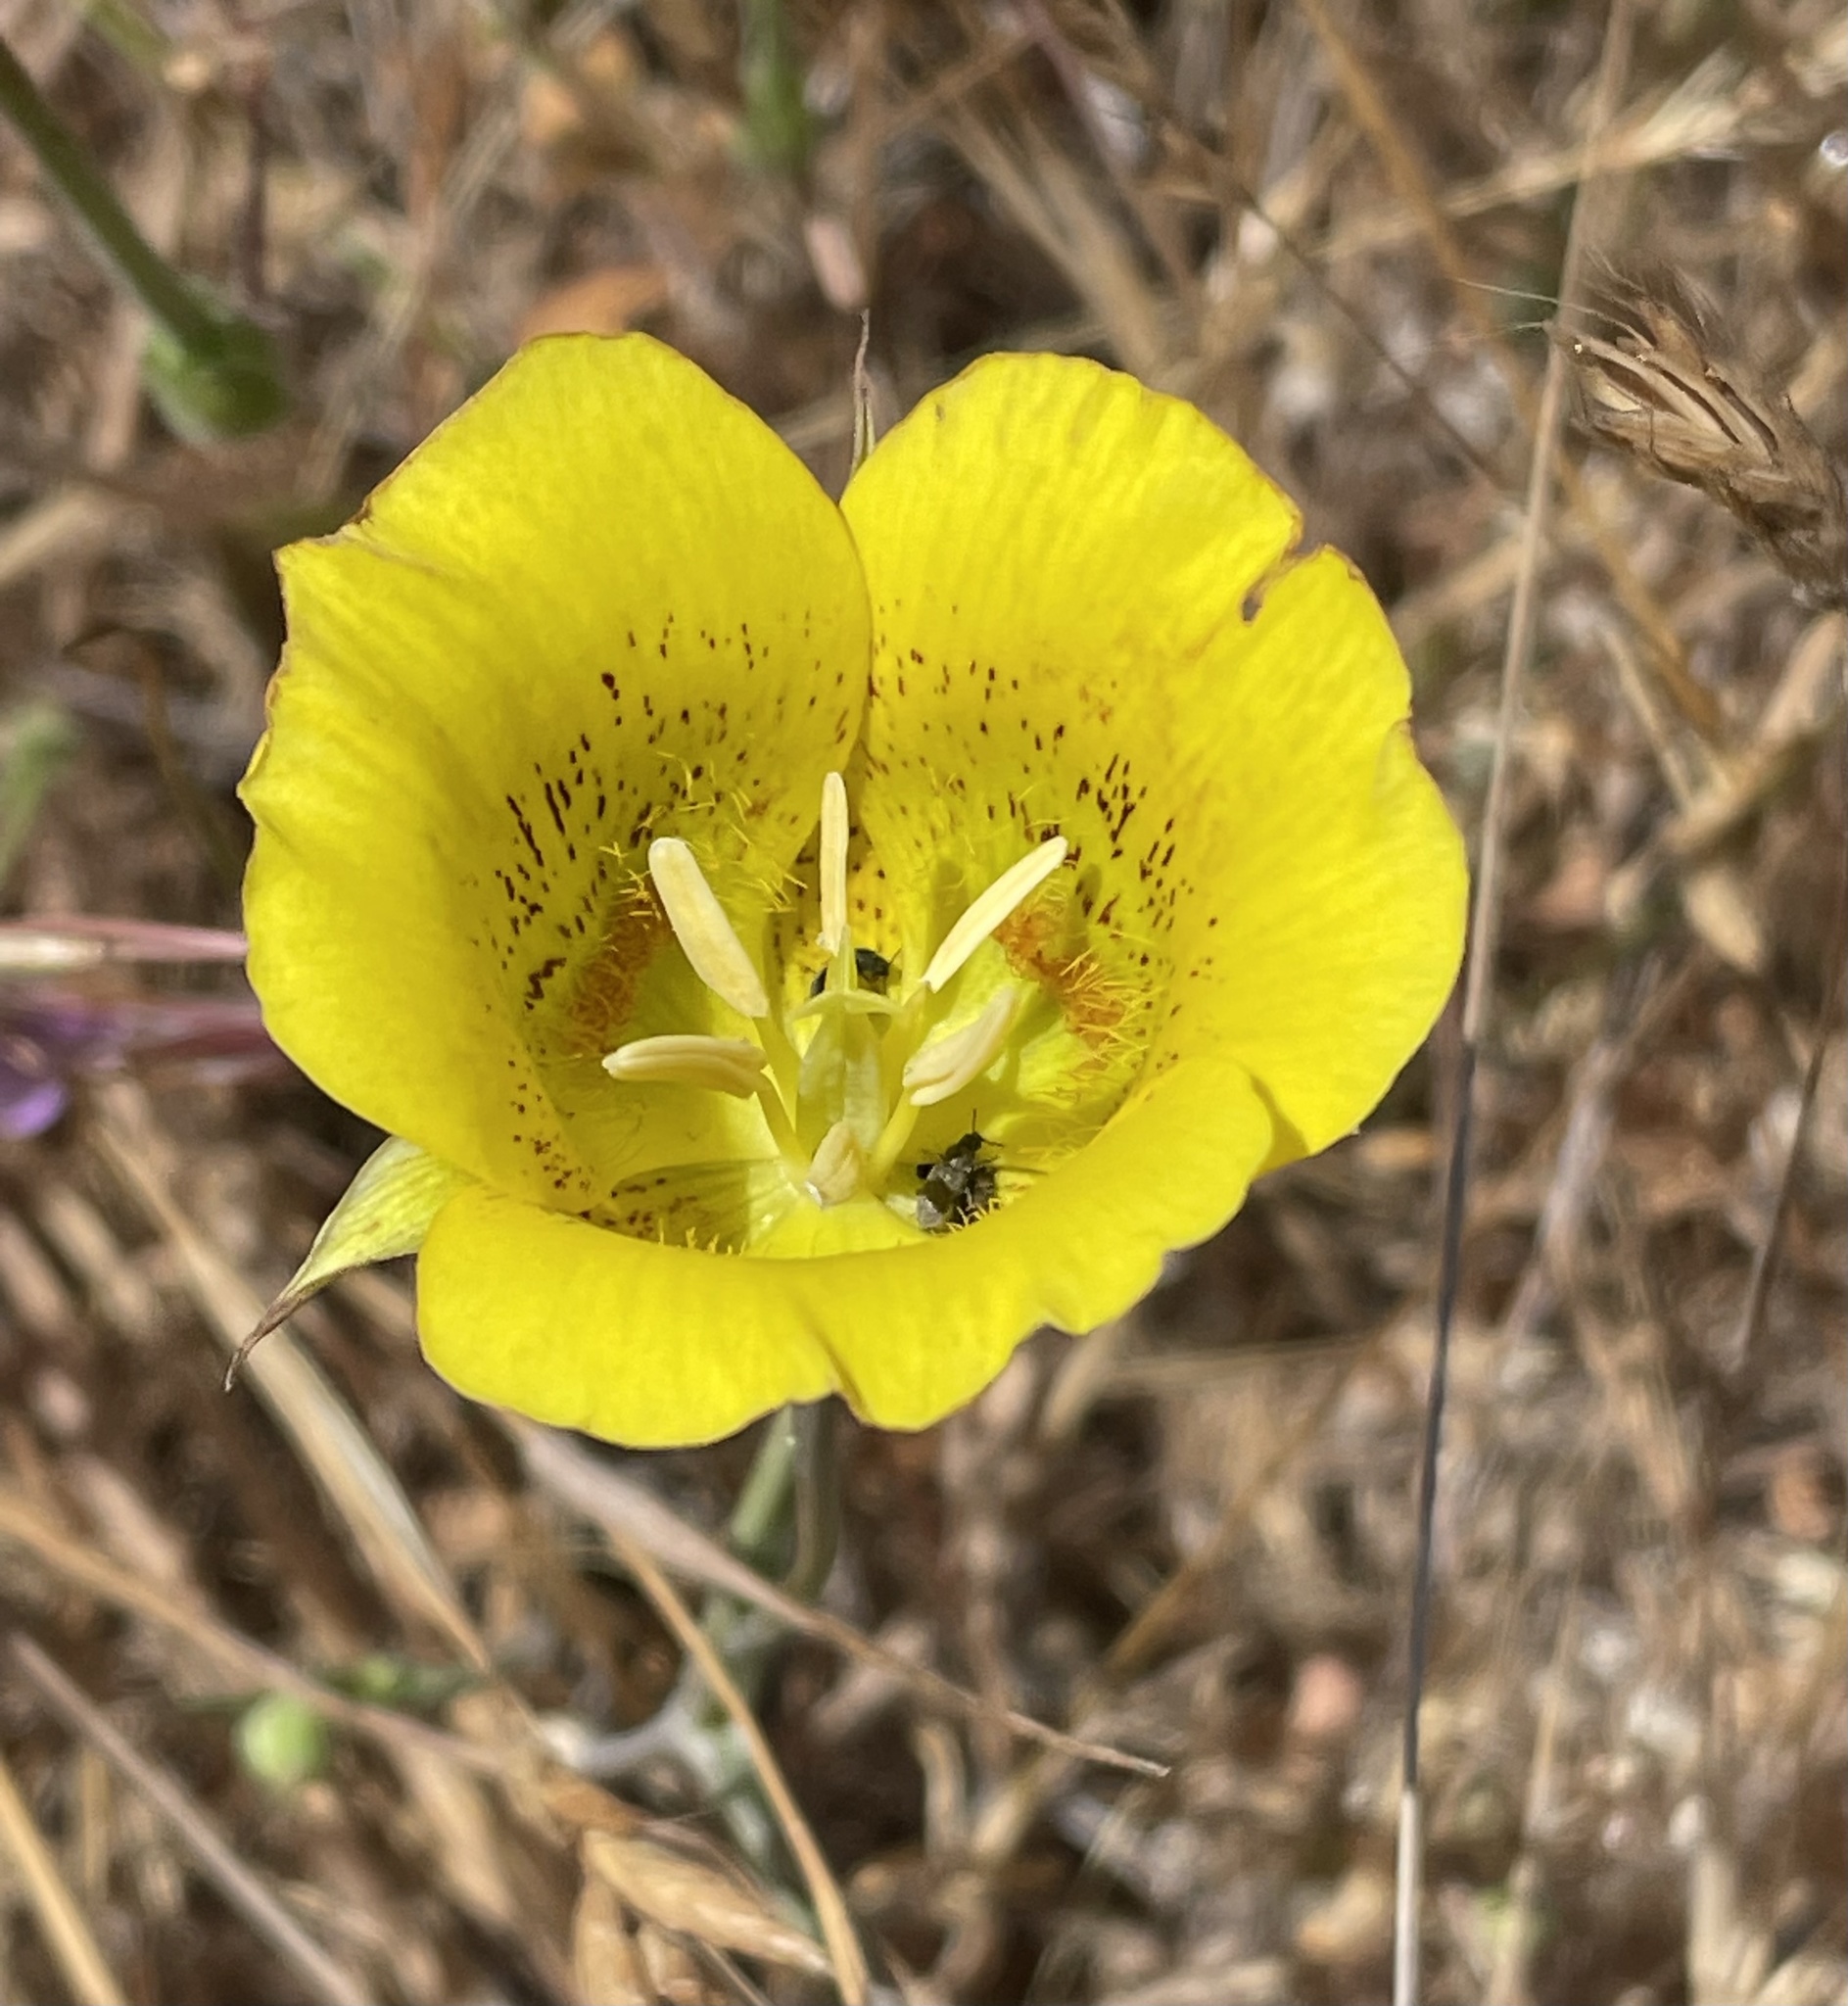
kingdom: Plantae
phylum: Tracheophyta
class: Liliopsida
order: Liliales
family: Liliaceae
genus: Calochortus
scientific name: Calochortus luteus
